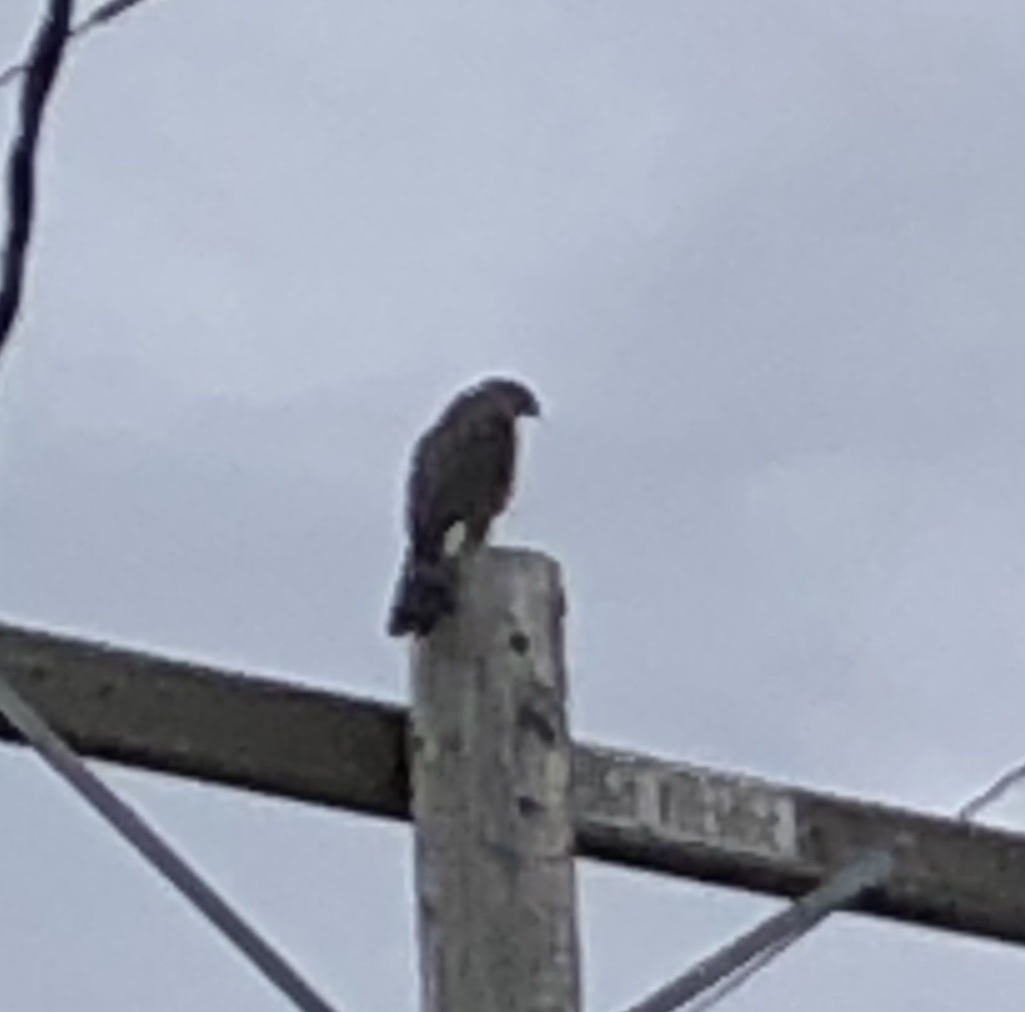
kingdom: Animalia
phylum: Chordata
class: Aves
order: Accipitriformes
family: Accipitridae
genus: Accipiter
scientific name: Accipiter cooperii
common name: Cooper's hawk
